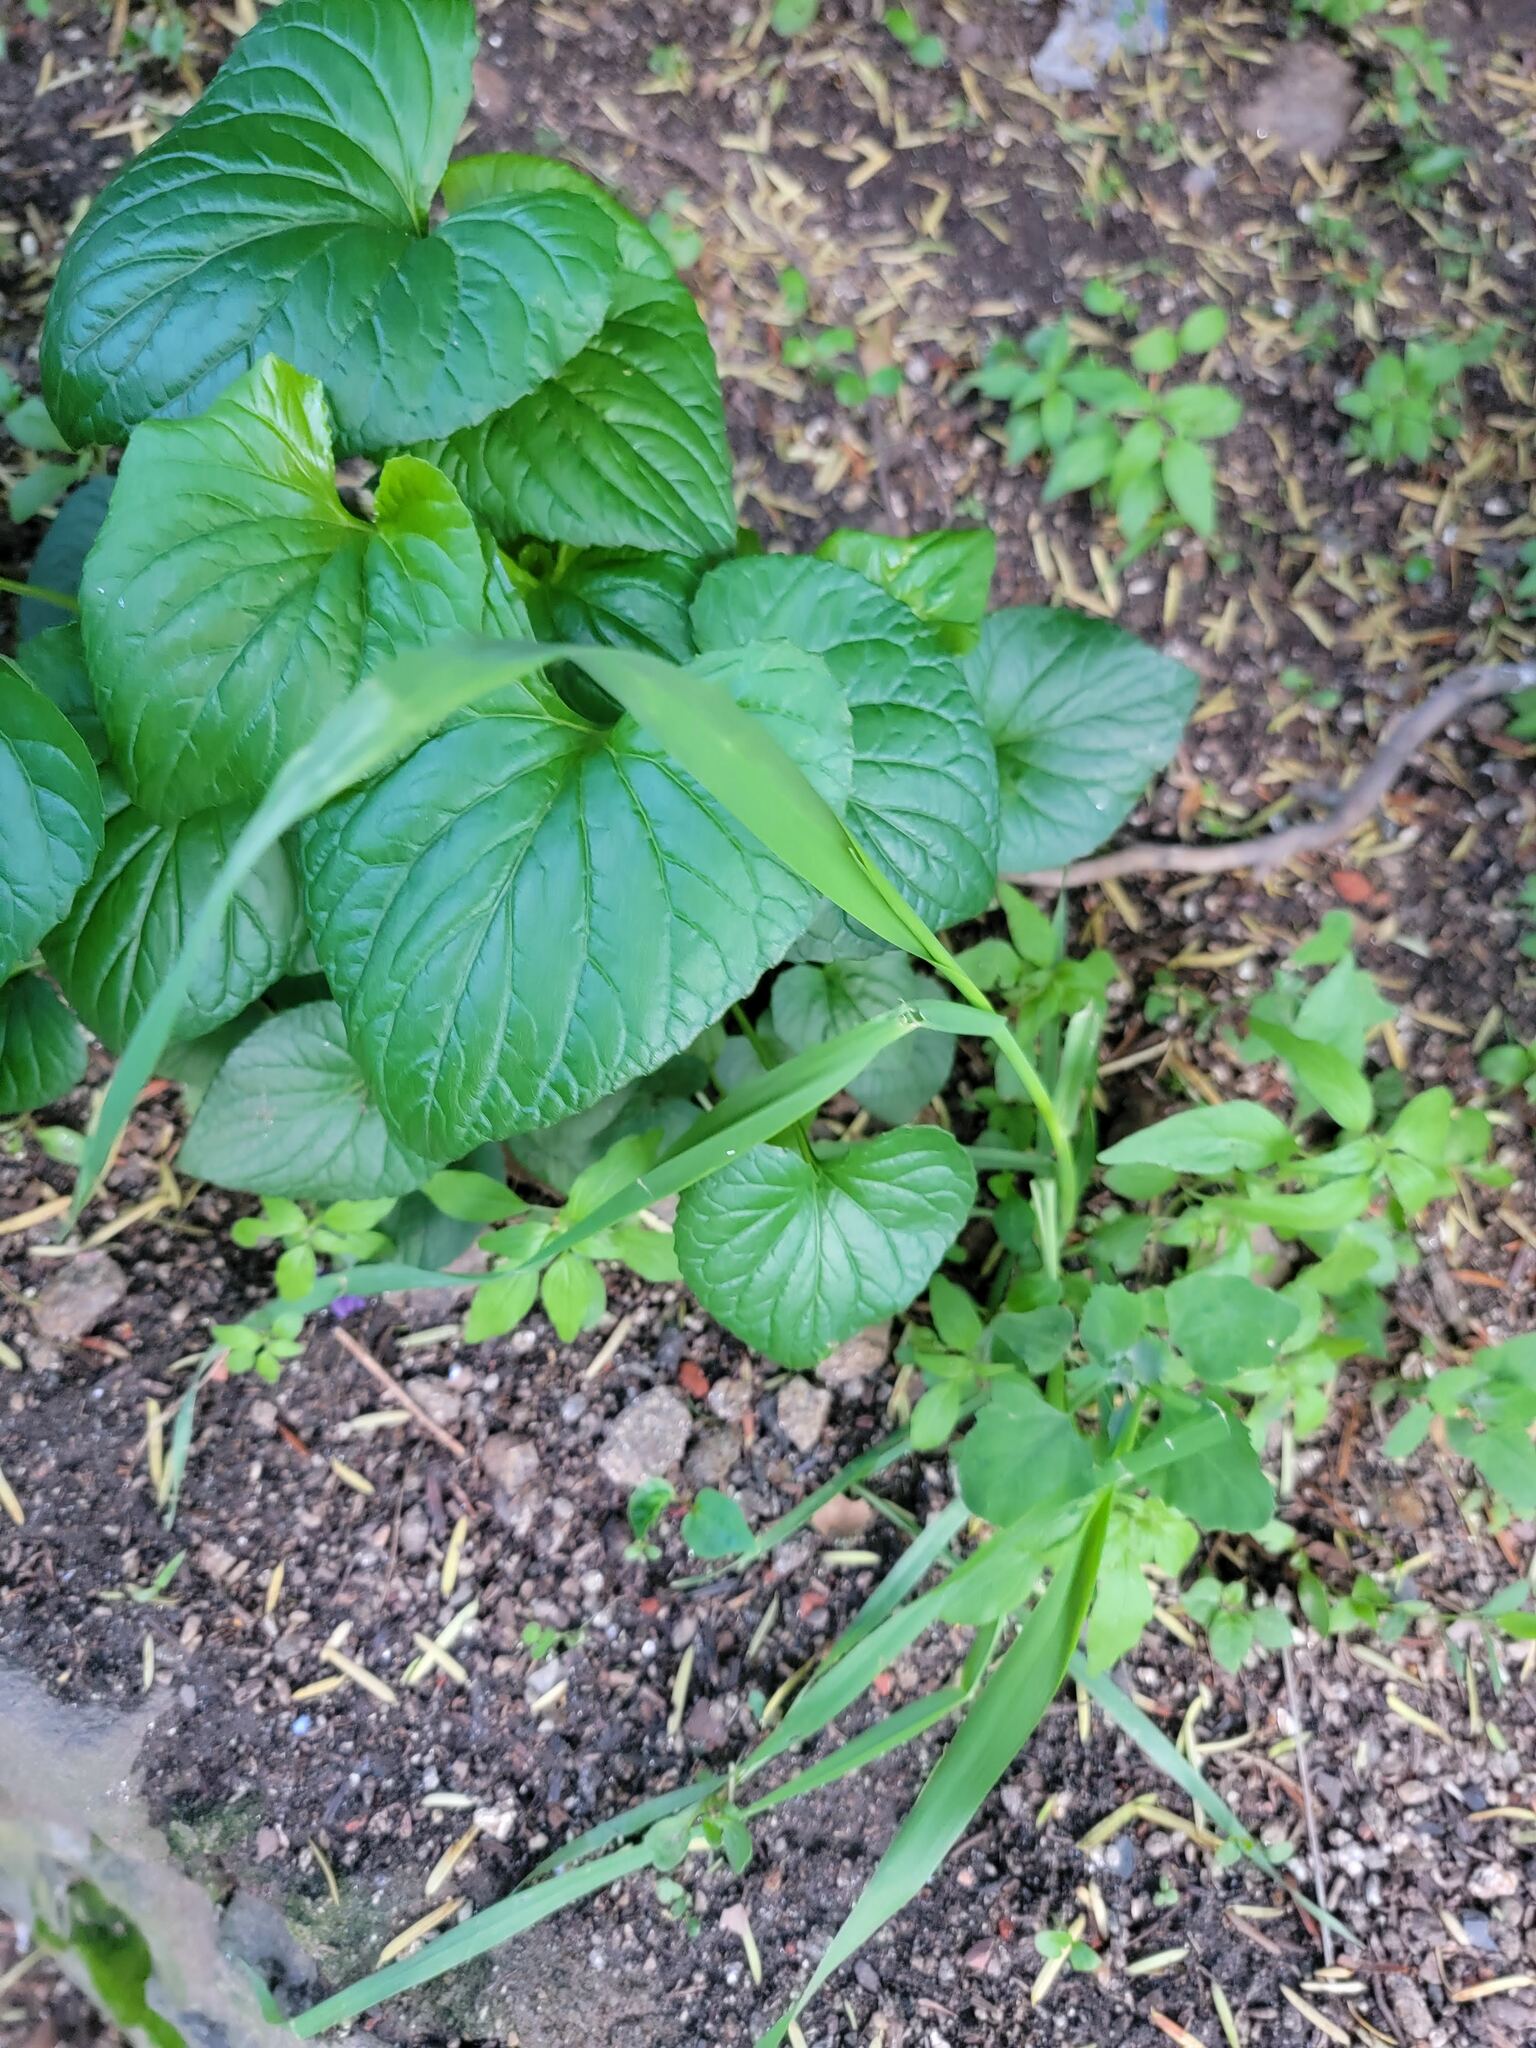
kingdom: Plantae
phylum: Tracheophyta
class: Magnoliopsida
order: Malpighiales
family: Violaceae
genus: Viola
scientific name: Viola sororia
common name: Dooryard violet
